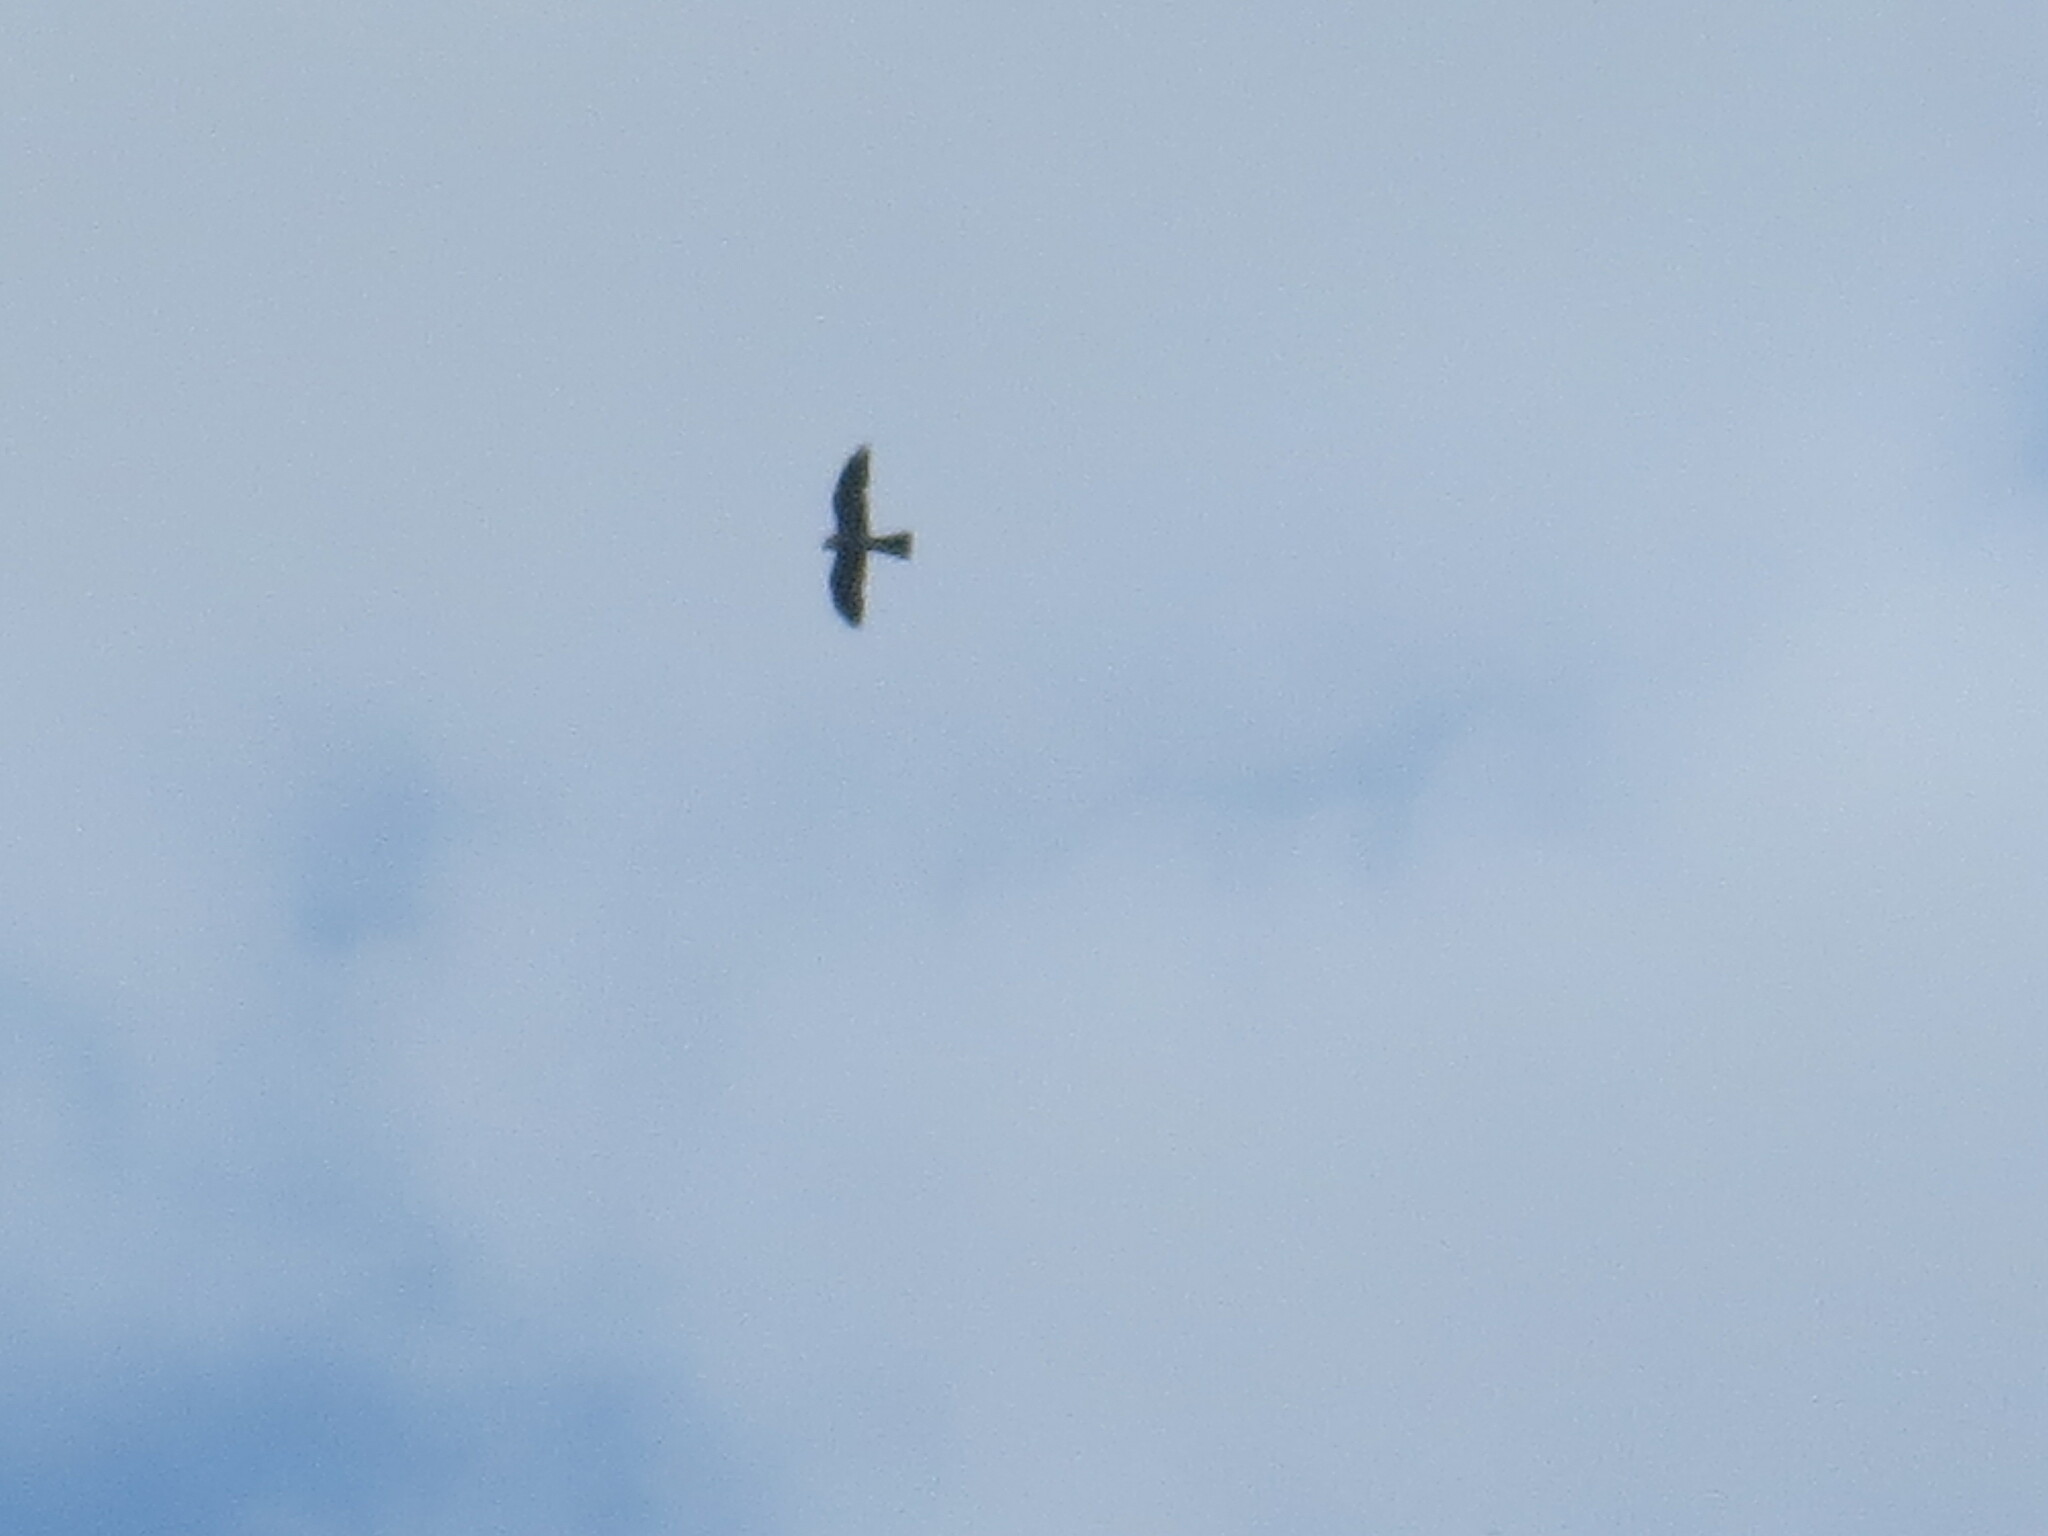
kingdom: Animalia
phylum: Chordata
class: Aves
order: Accipitriformes
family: Accipitridae
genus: Ictinia
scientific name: Ictinia mississippiensis
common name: Mississippi kite
